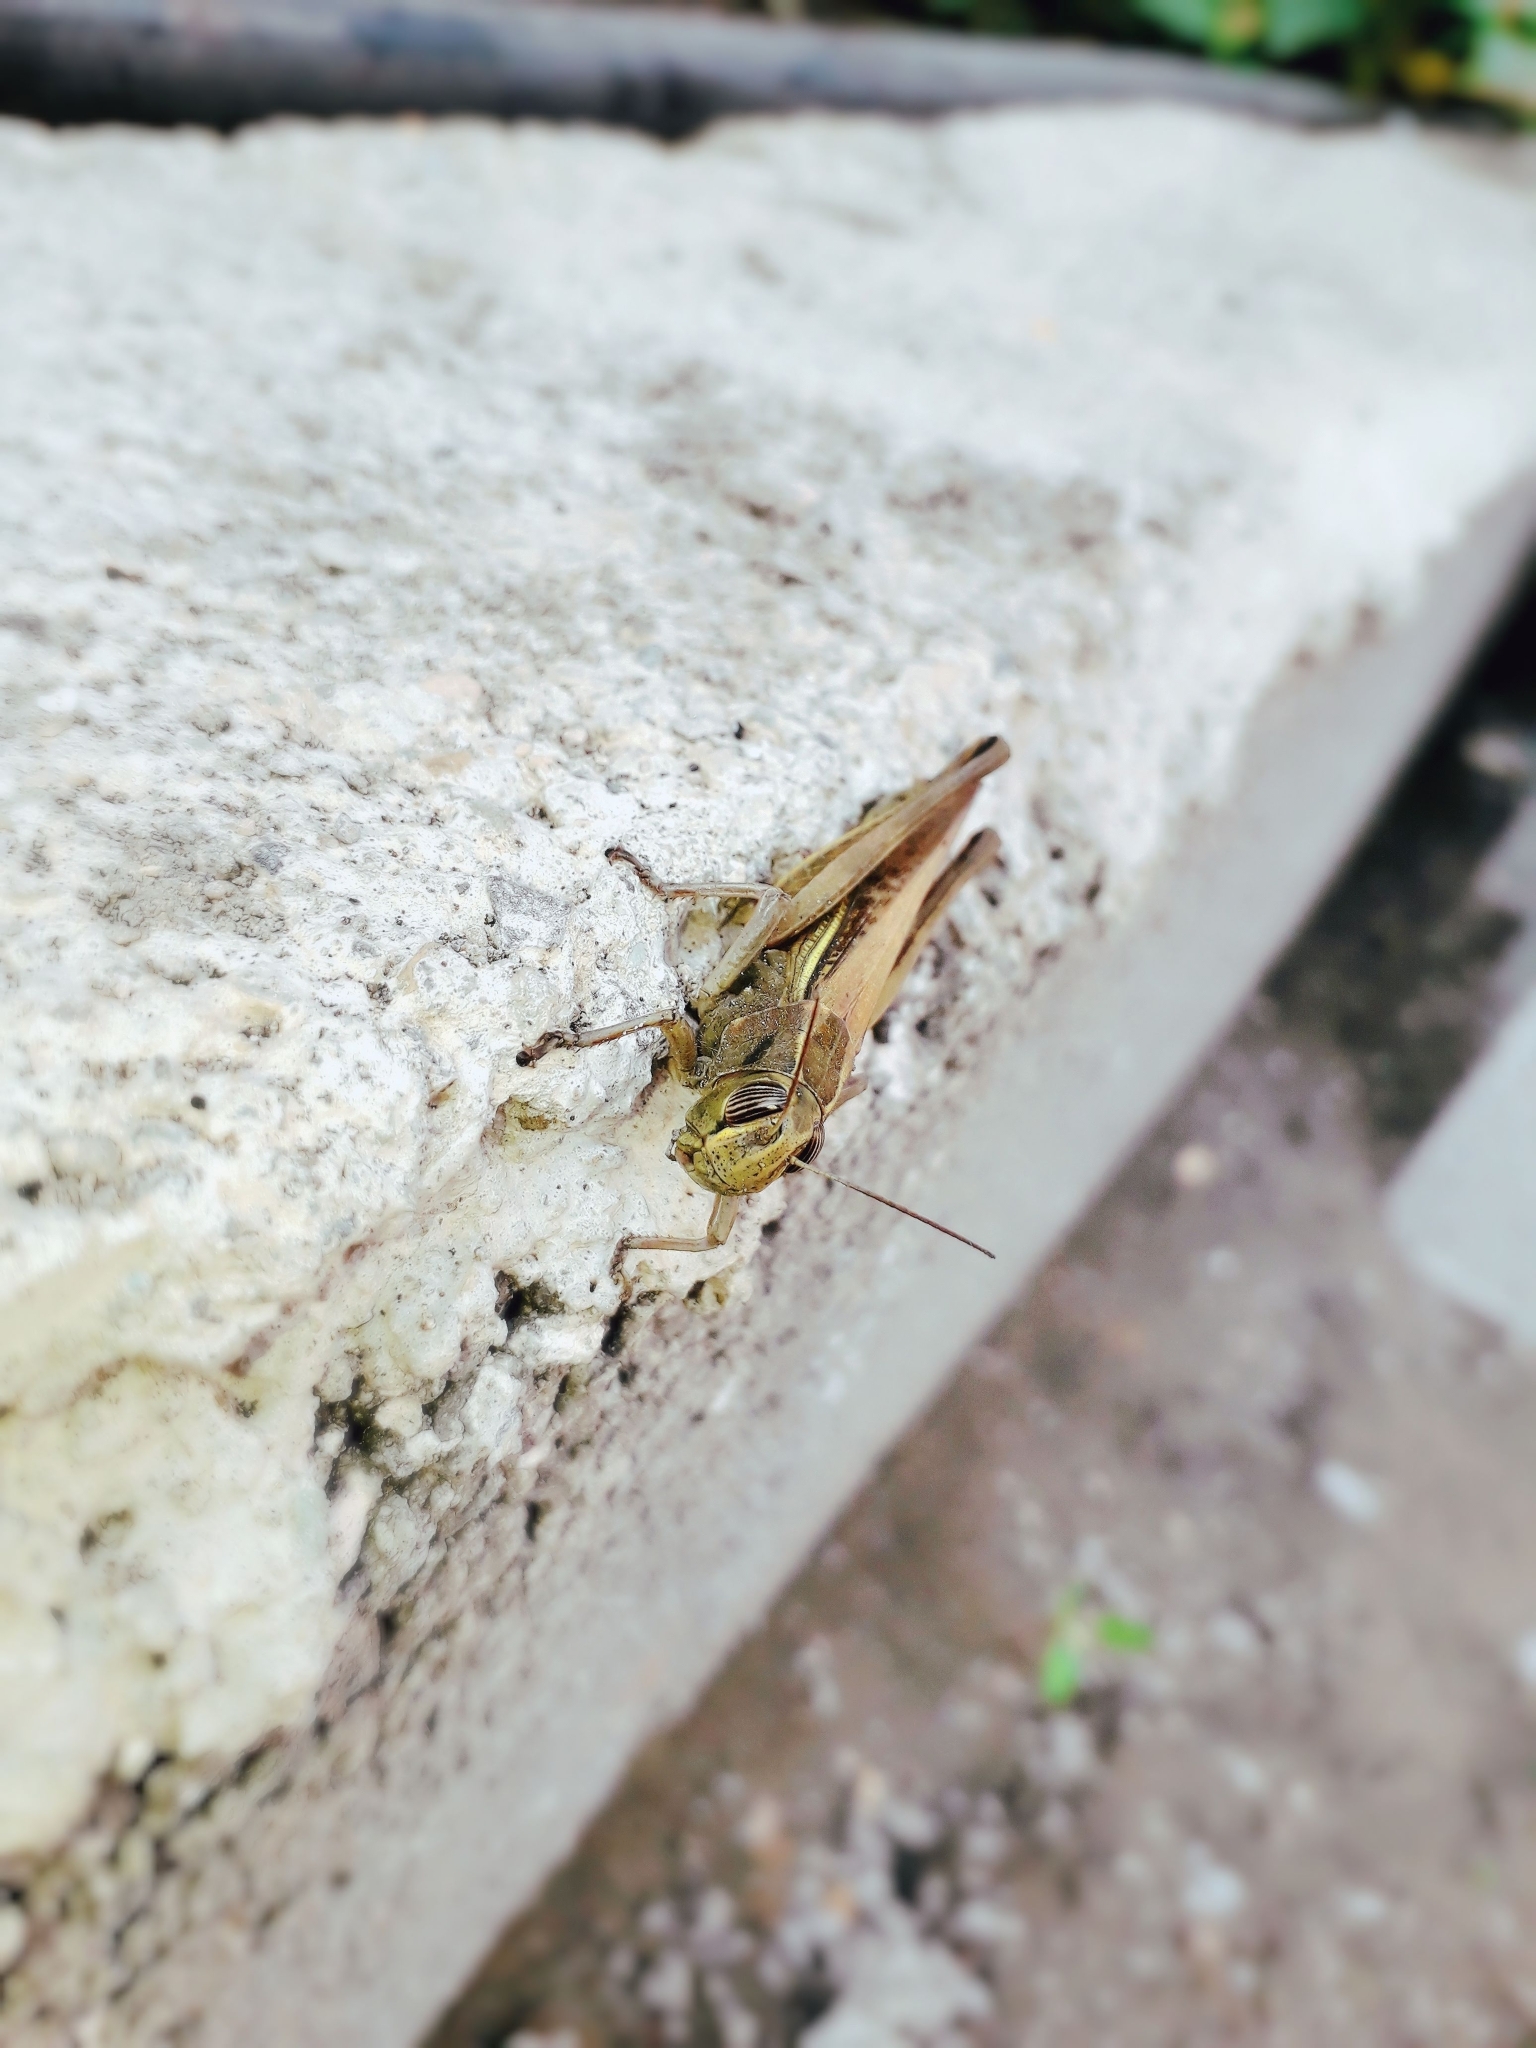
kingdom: Animalia
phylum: Arthropoda
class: Insecta
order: Orthoptera
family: Acrididae
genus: Eyprepocnemis
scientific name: Eyprepocnemis plorans
